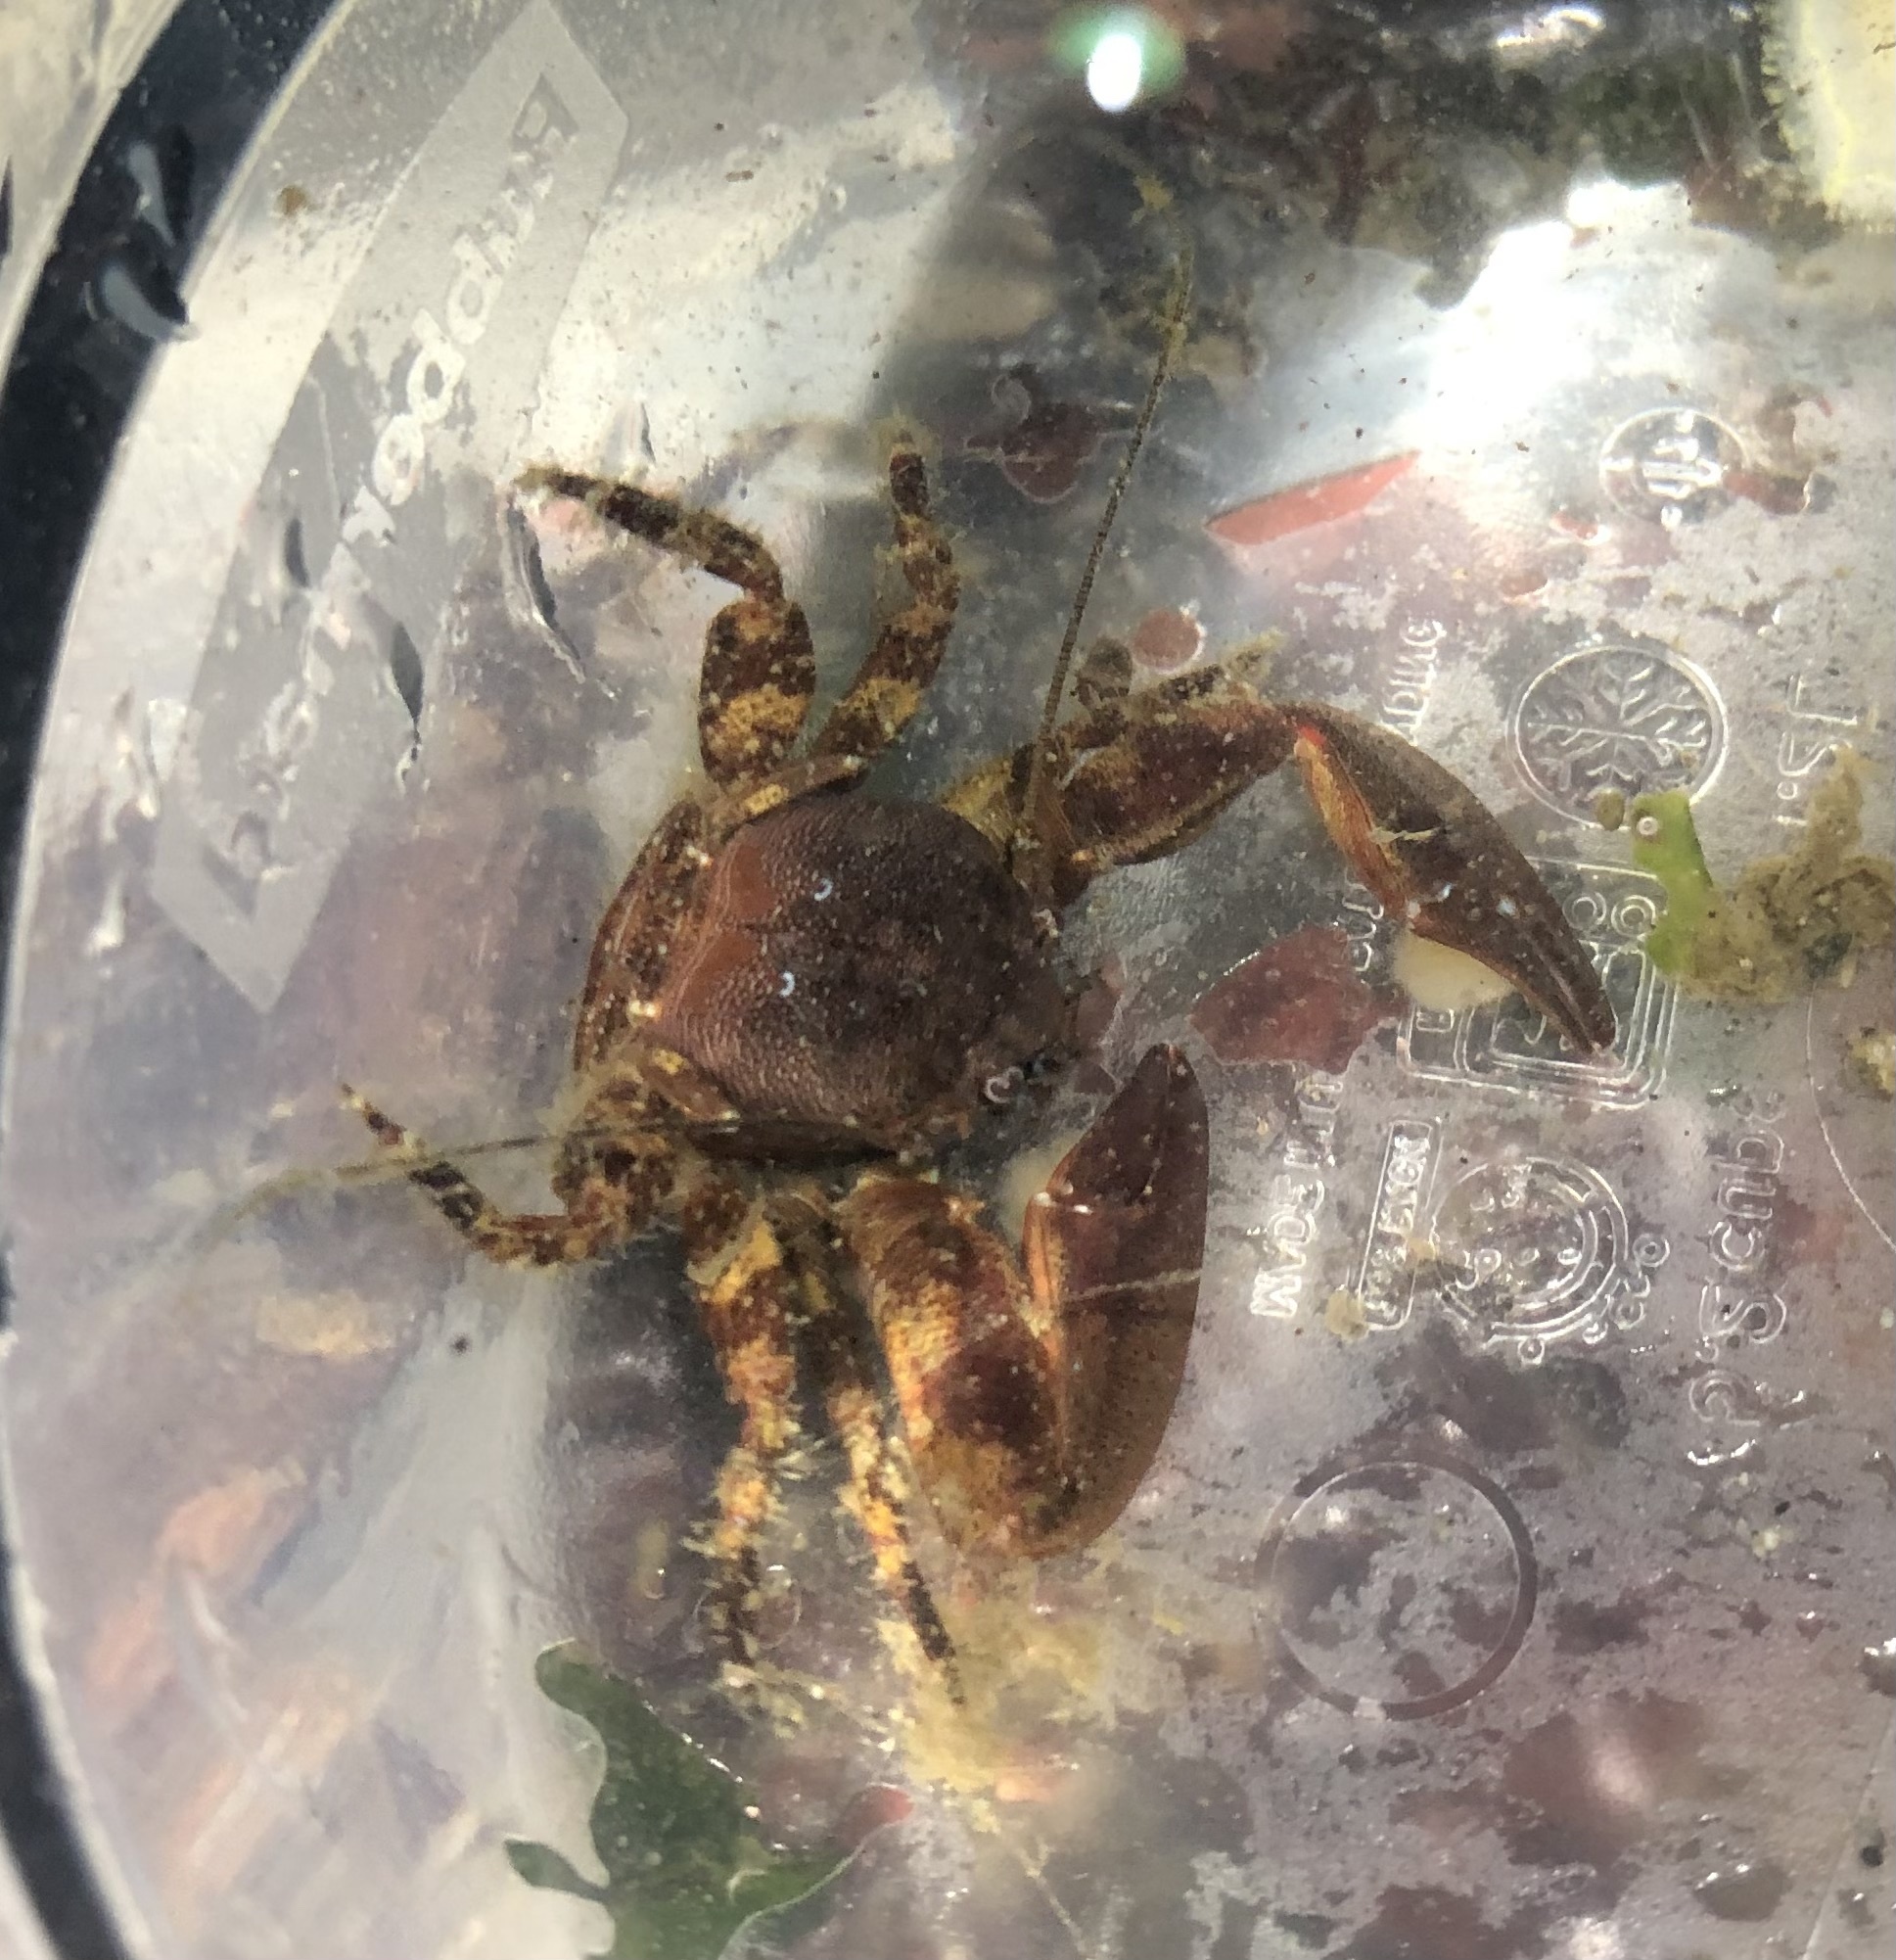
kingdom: Animalia
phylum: Arthropoda
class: Malacostraca
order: Decapoda
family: Porcellanidae
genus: Petrolisthes
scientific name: Petrolisthes eriomerus
